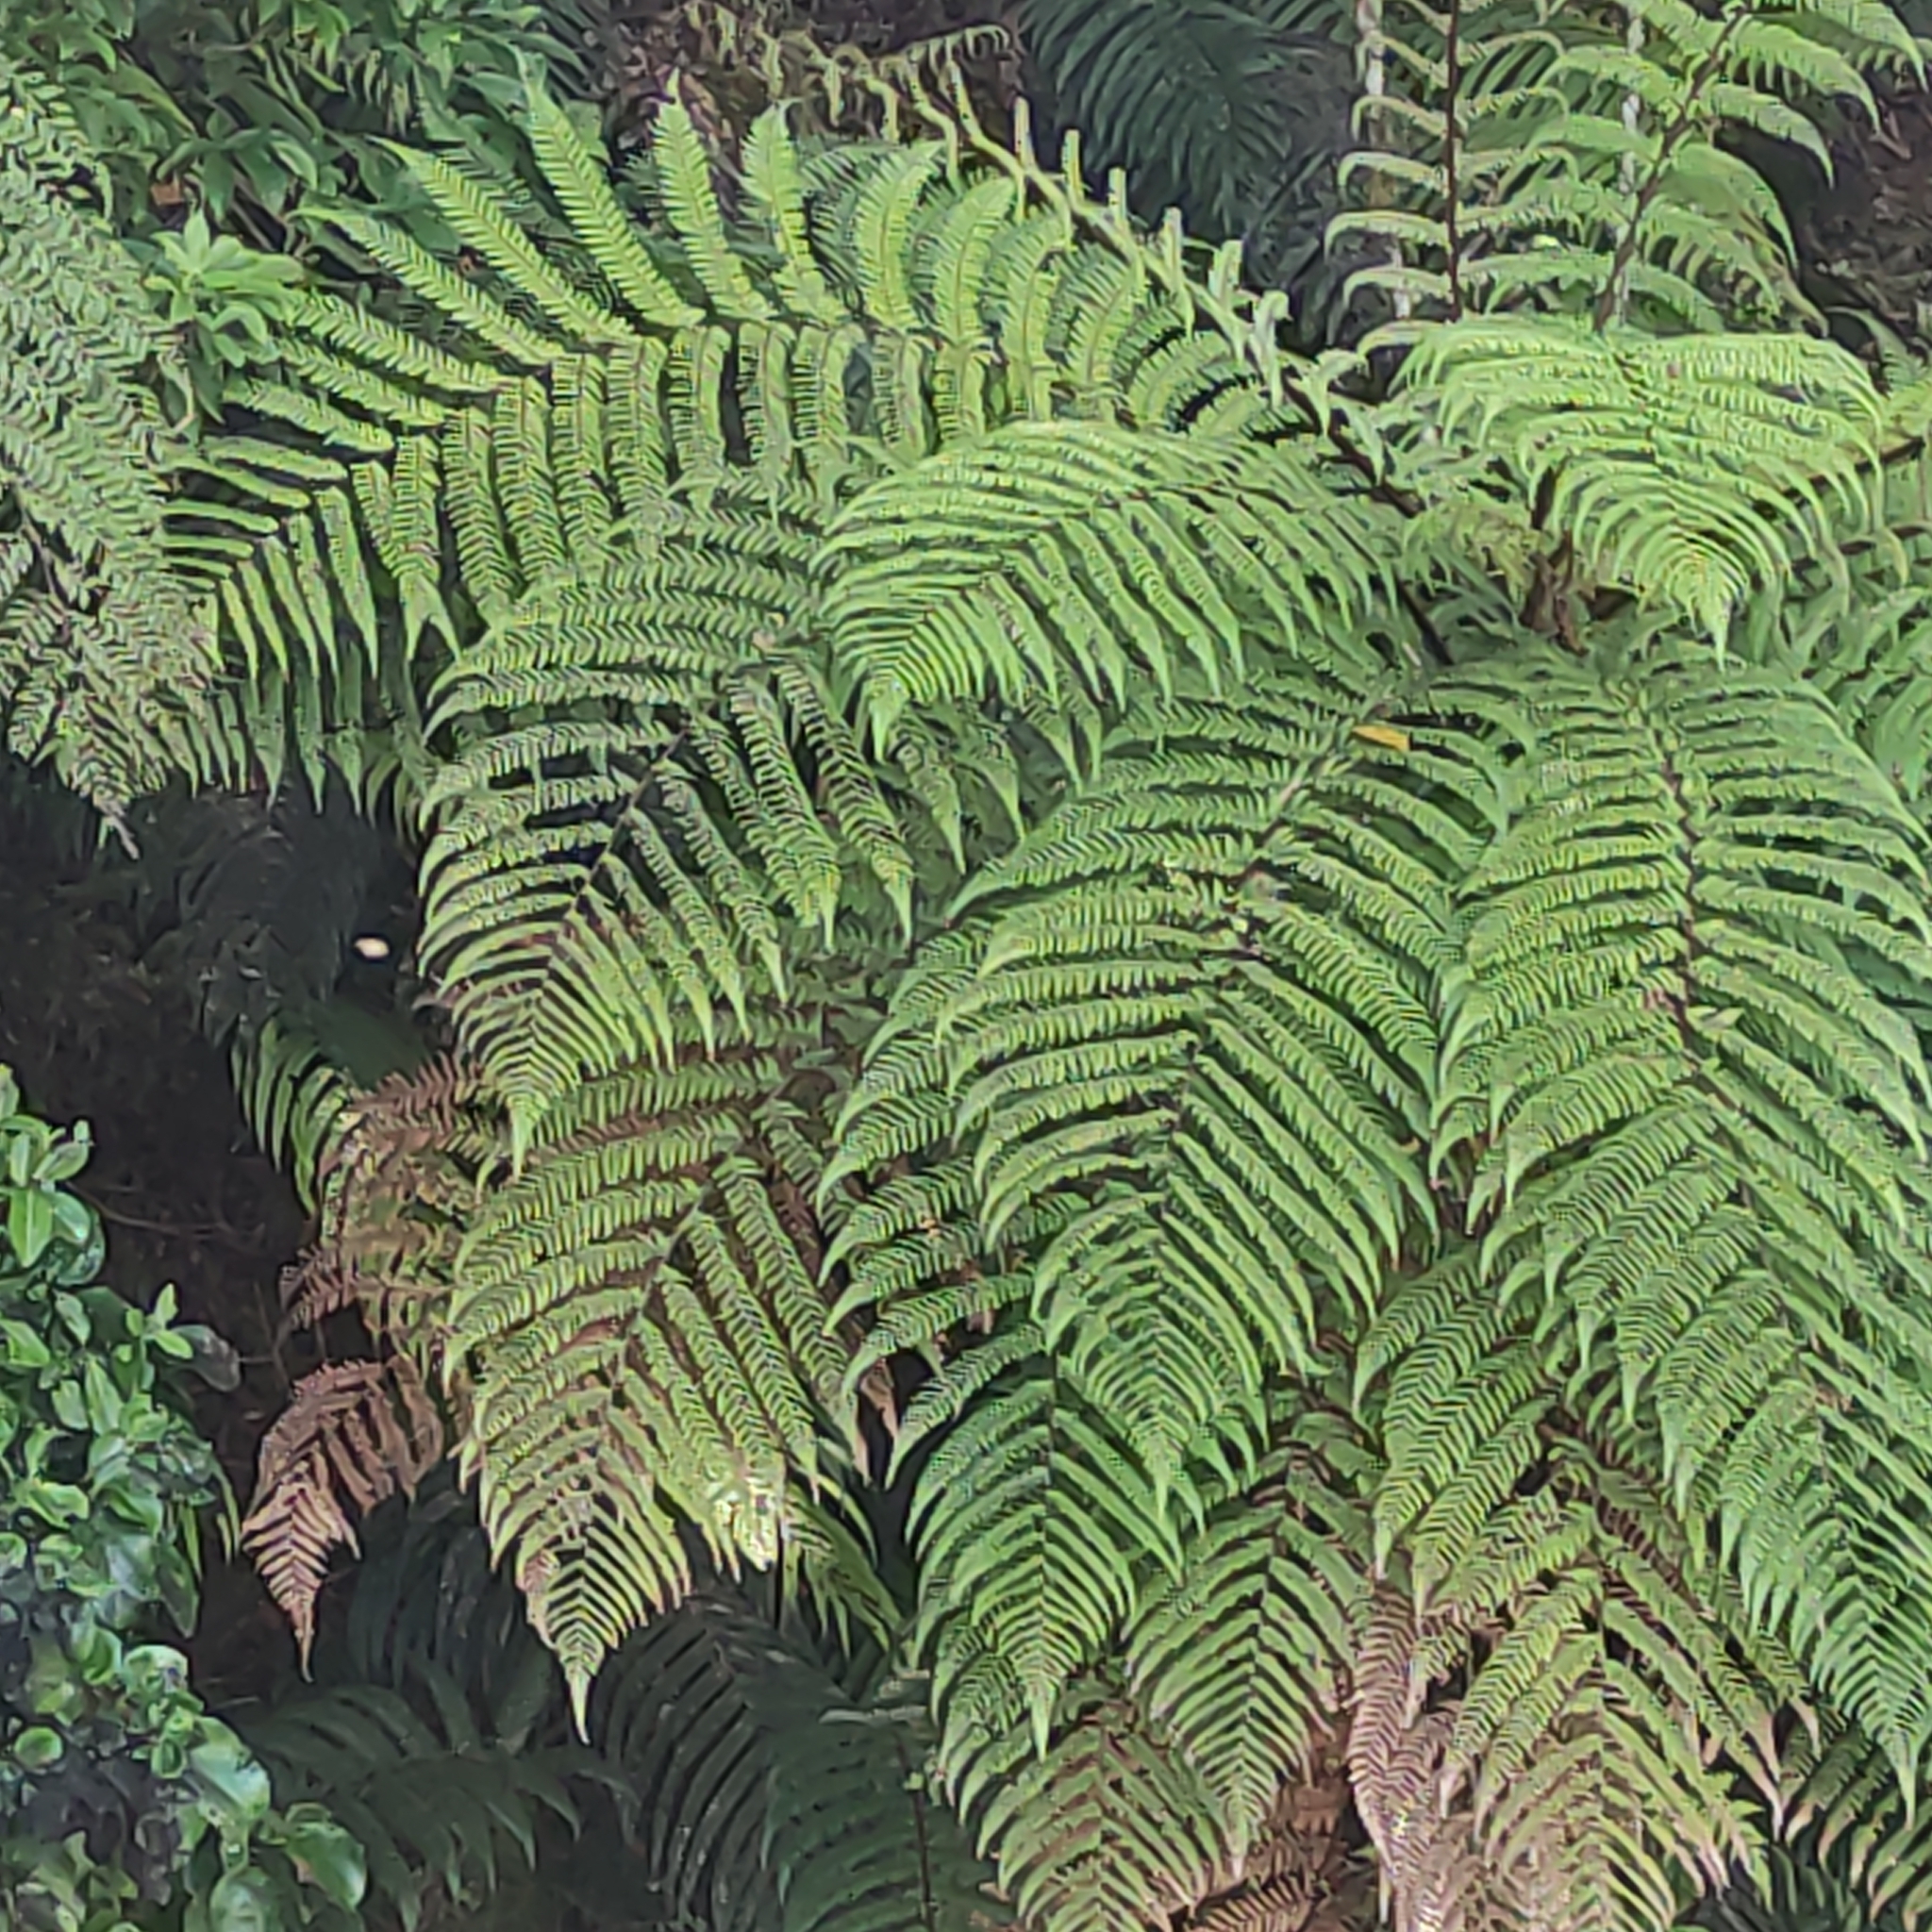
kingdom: Plantae
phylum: Tracheophyta
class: Polypodiopsida
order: Cyatheales
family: Dicksoniaceae
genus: Dicksonia
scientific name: Dicksonia squarrosa
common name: Hard treefern
